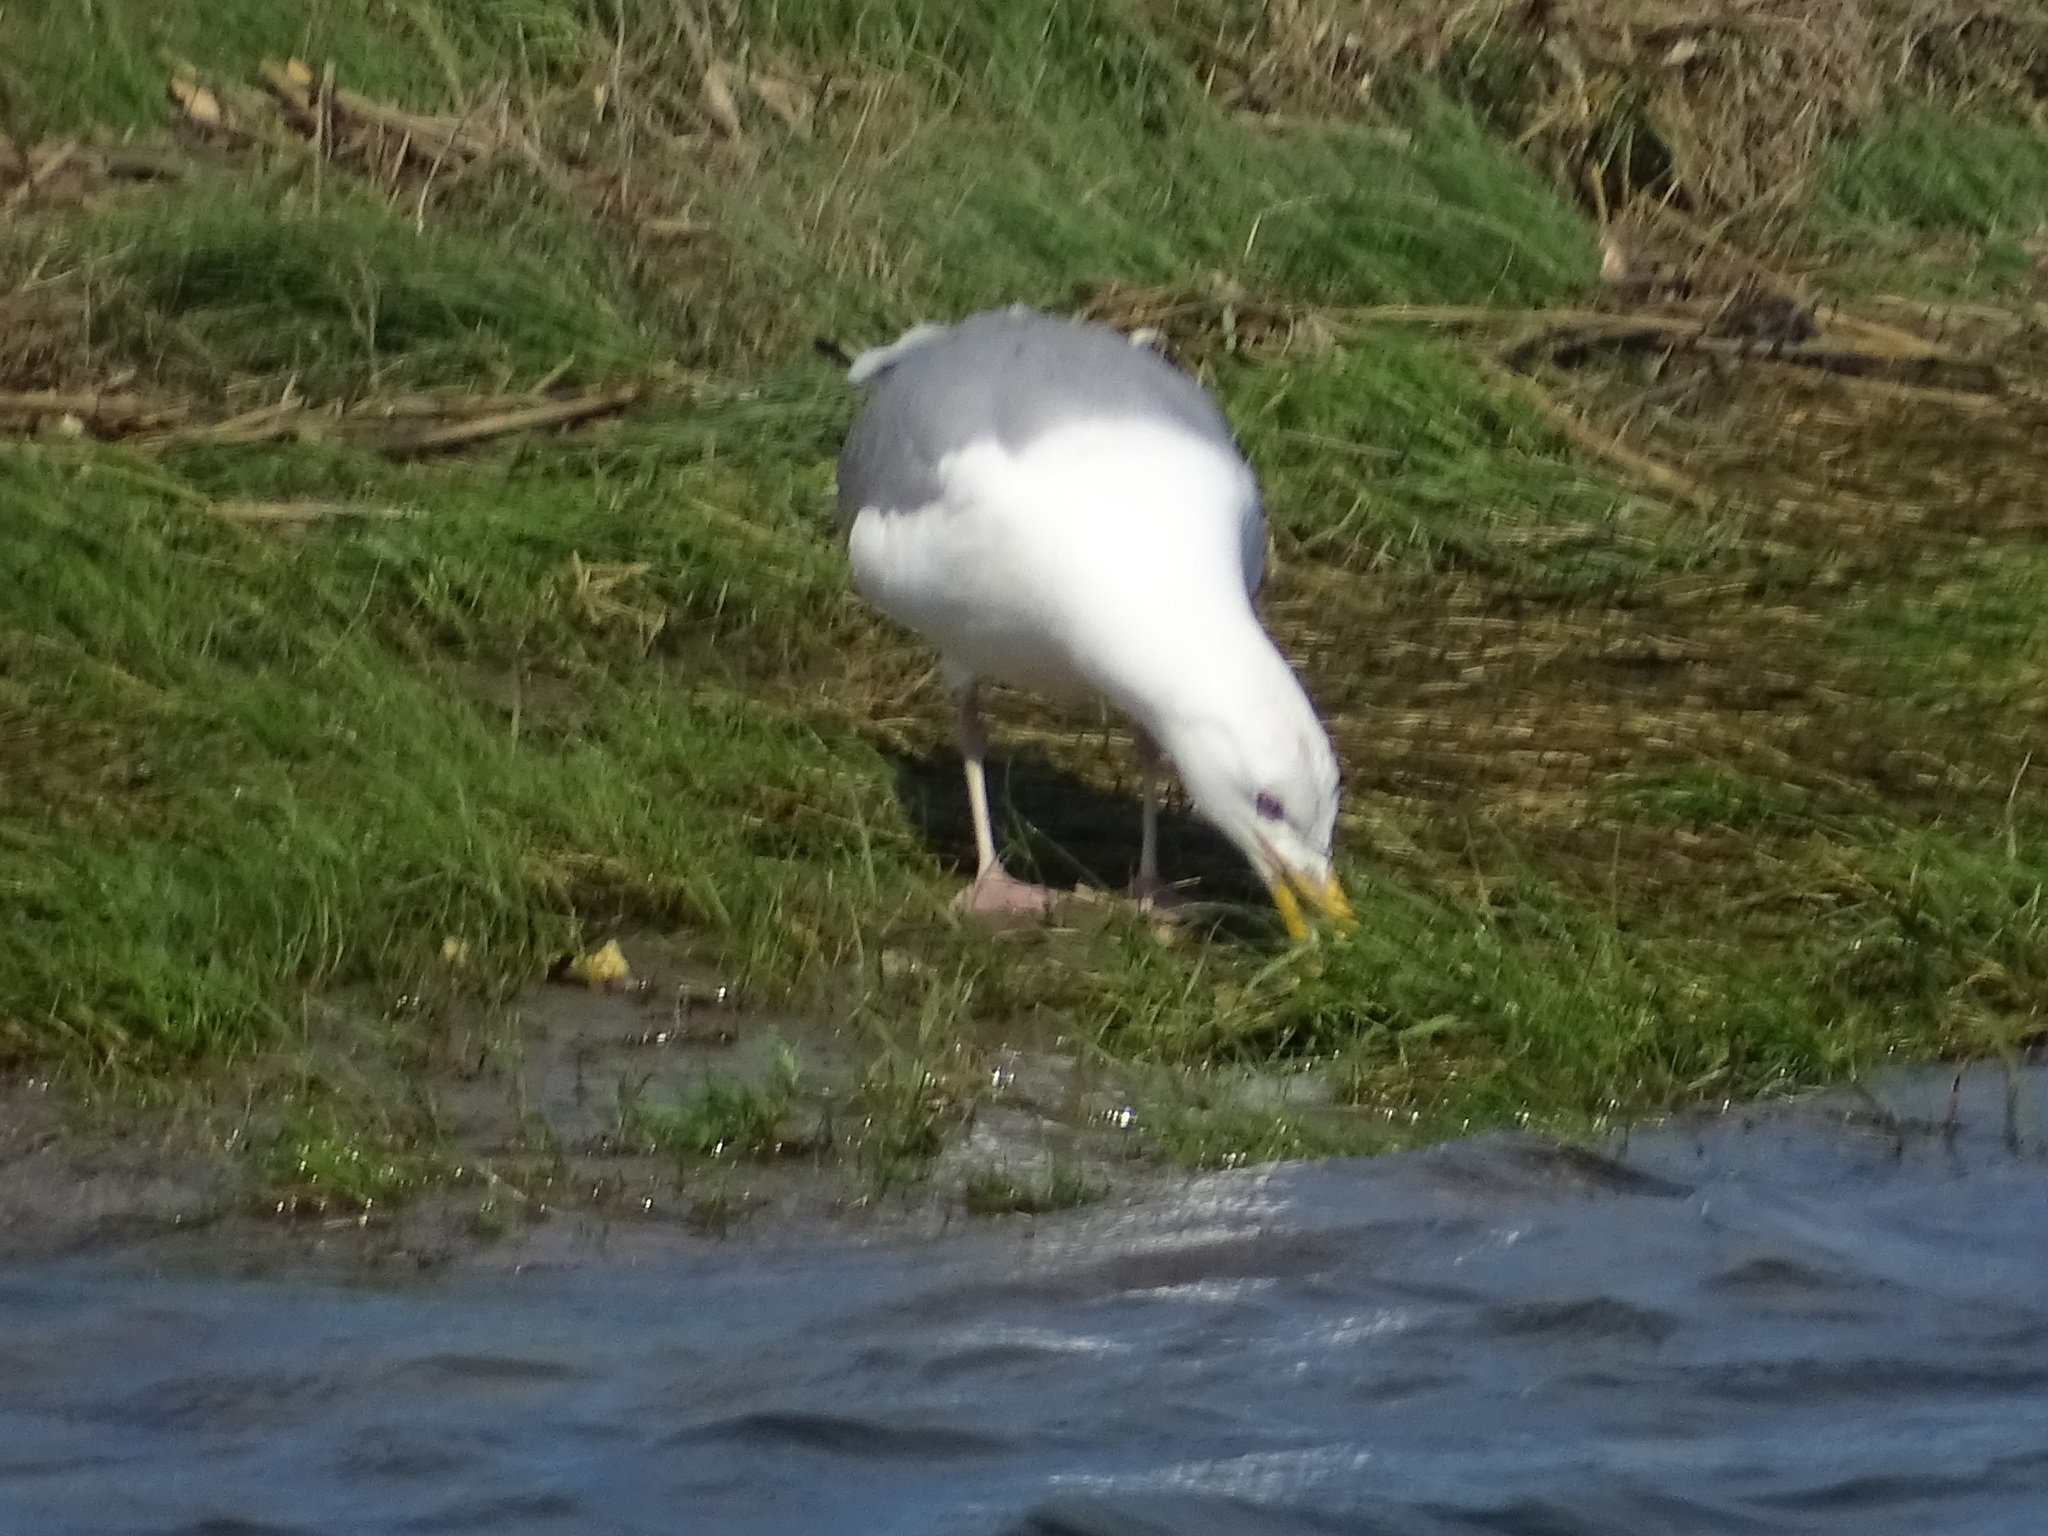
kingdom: Animalia
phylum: Chordata
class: Aves
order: Charadriiformes
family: Laridae
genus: Larus
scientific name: Larus argentatus
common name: Herring gull
